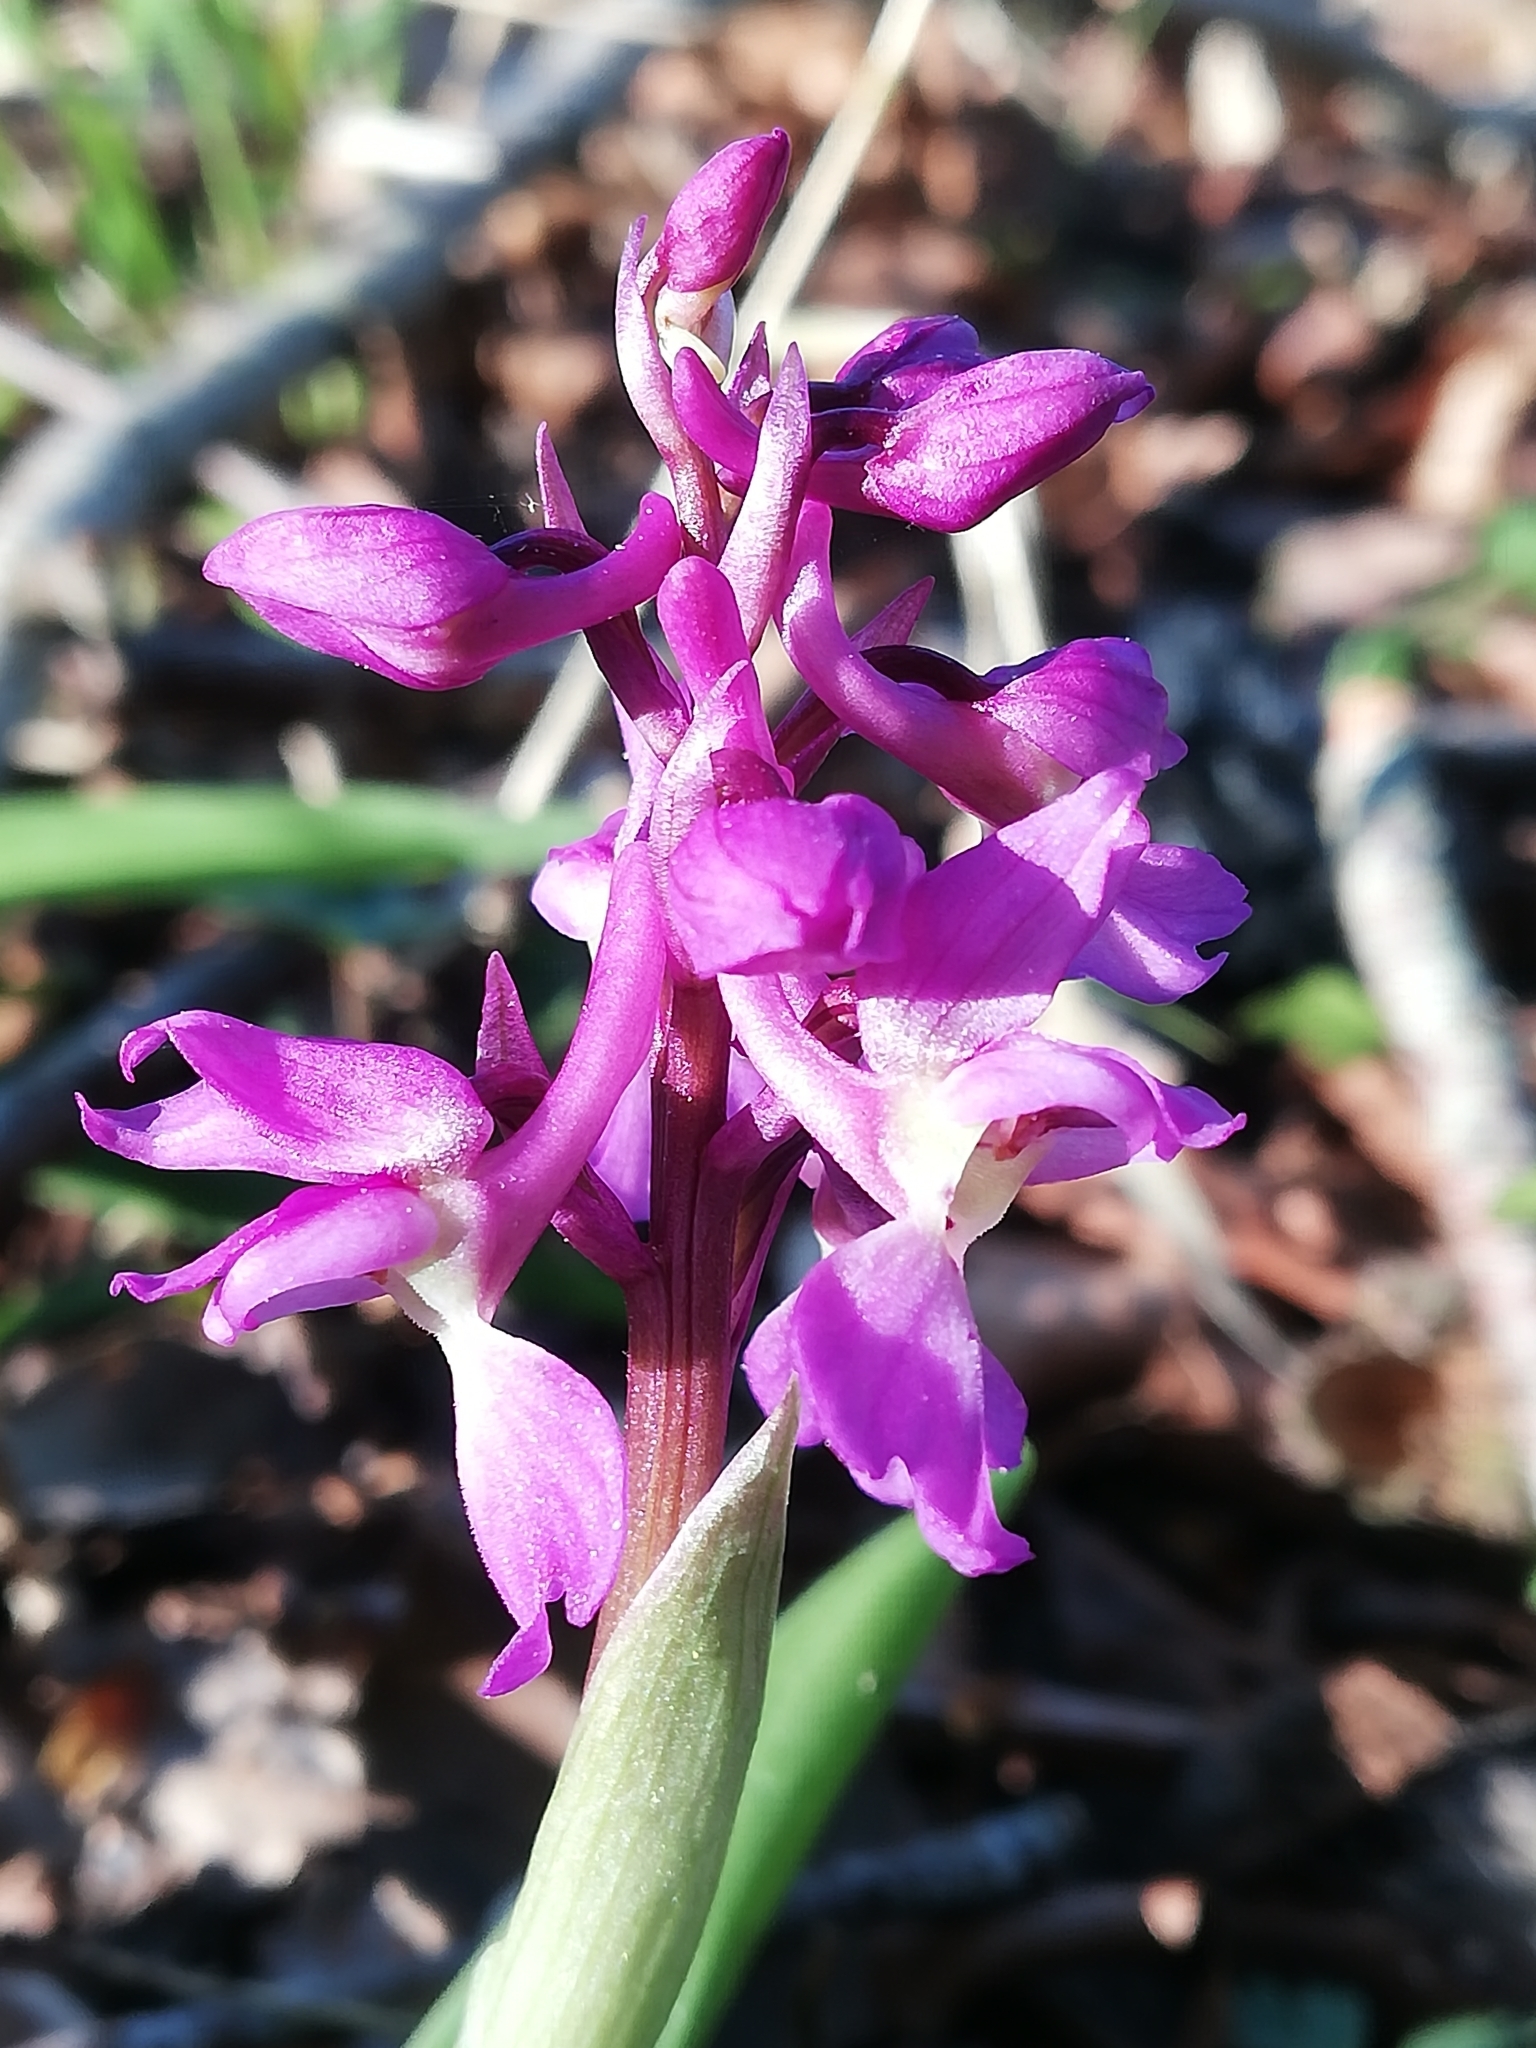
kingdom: Plantae
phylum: Tracheophyta
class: Liliopsida
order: Asparagales
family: Orchidaceae
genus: Orchis
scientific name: Orchis mascula
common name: Early-purple orchid
